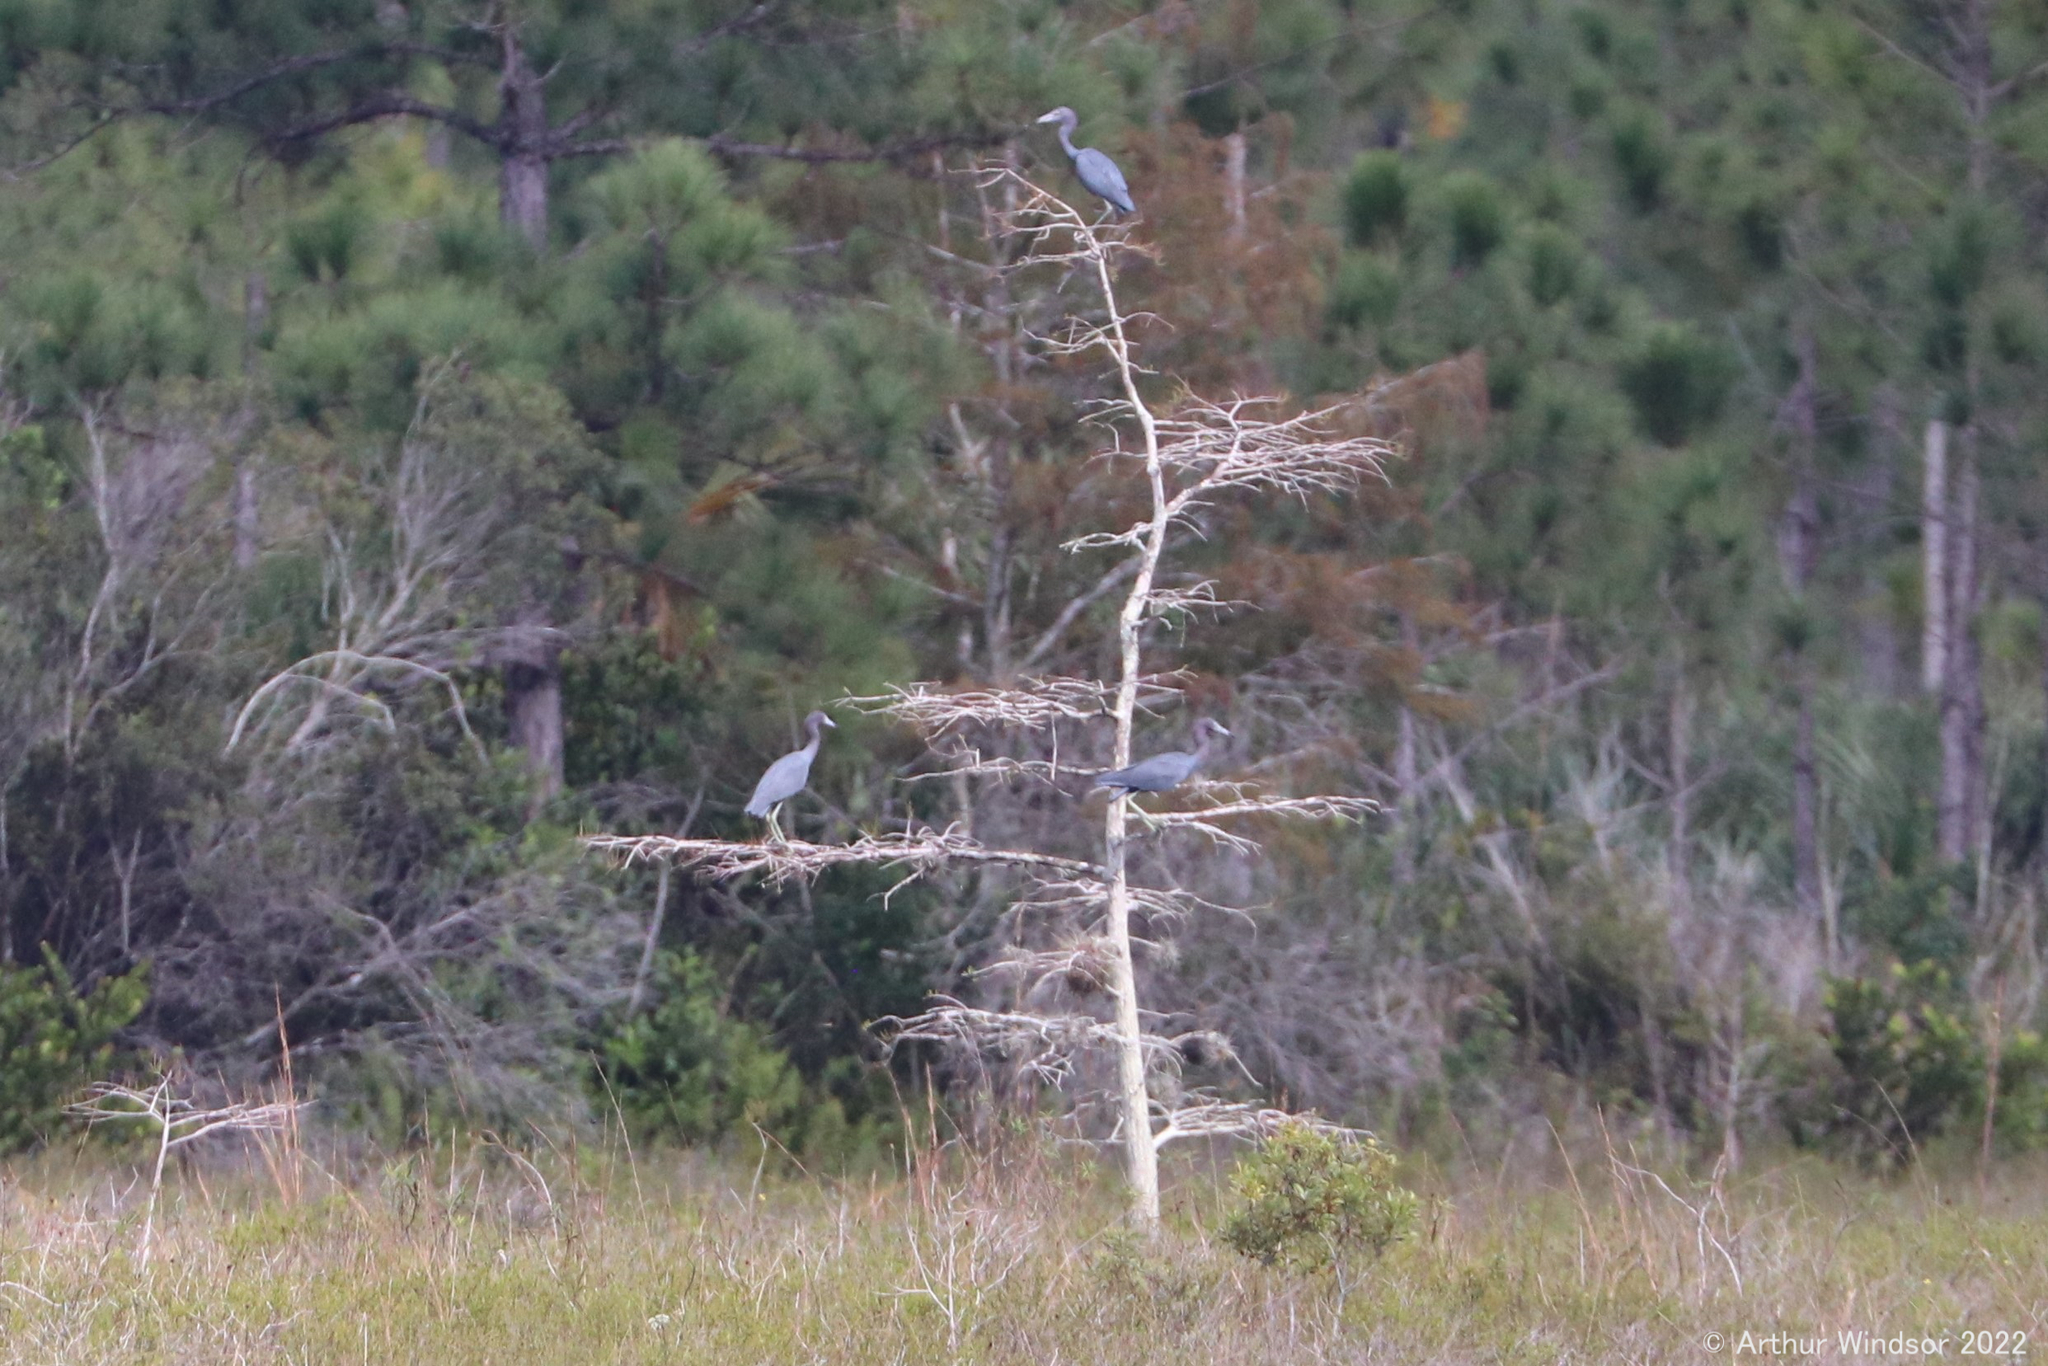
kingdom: Animalia
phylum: Chordata
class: Aves
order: Pelecaniformes
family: Ardeidae
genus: Egretta
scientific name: Egretta caerulea
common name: Little blue heron
